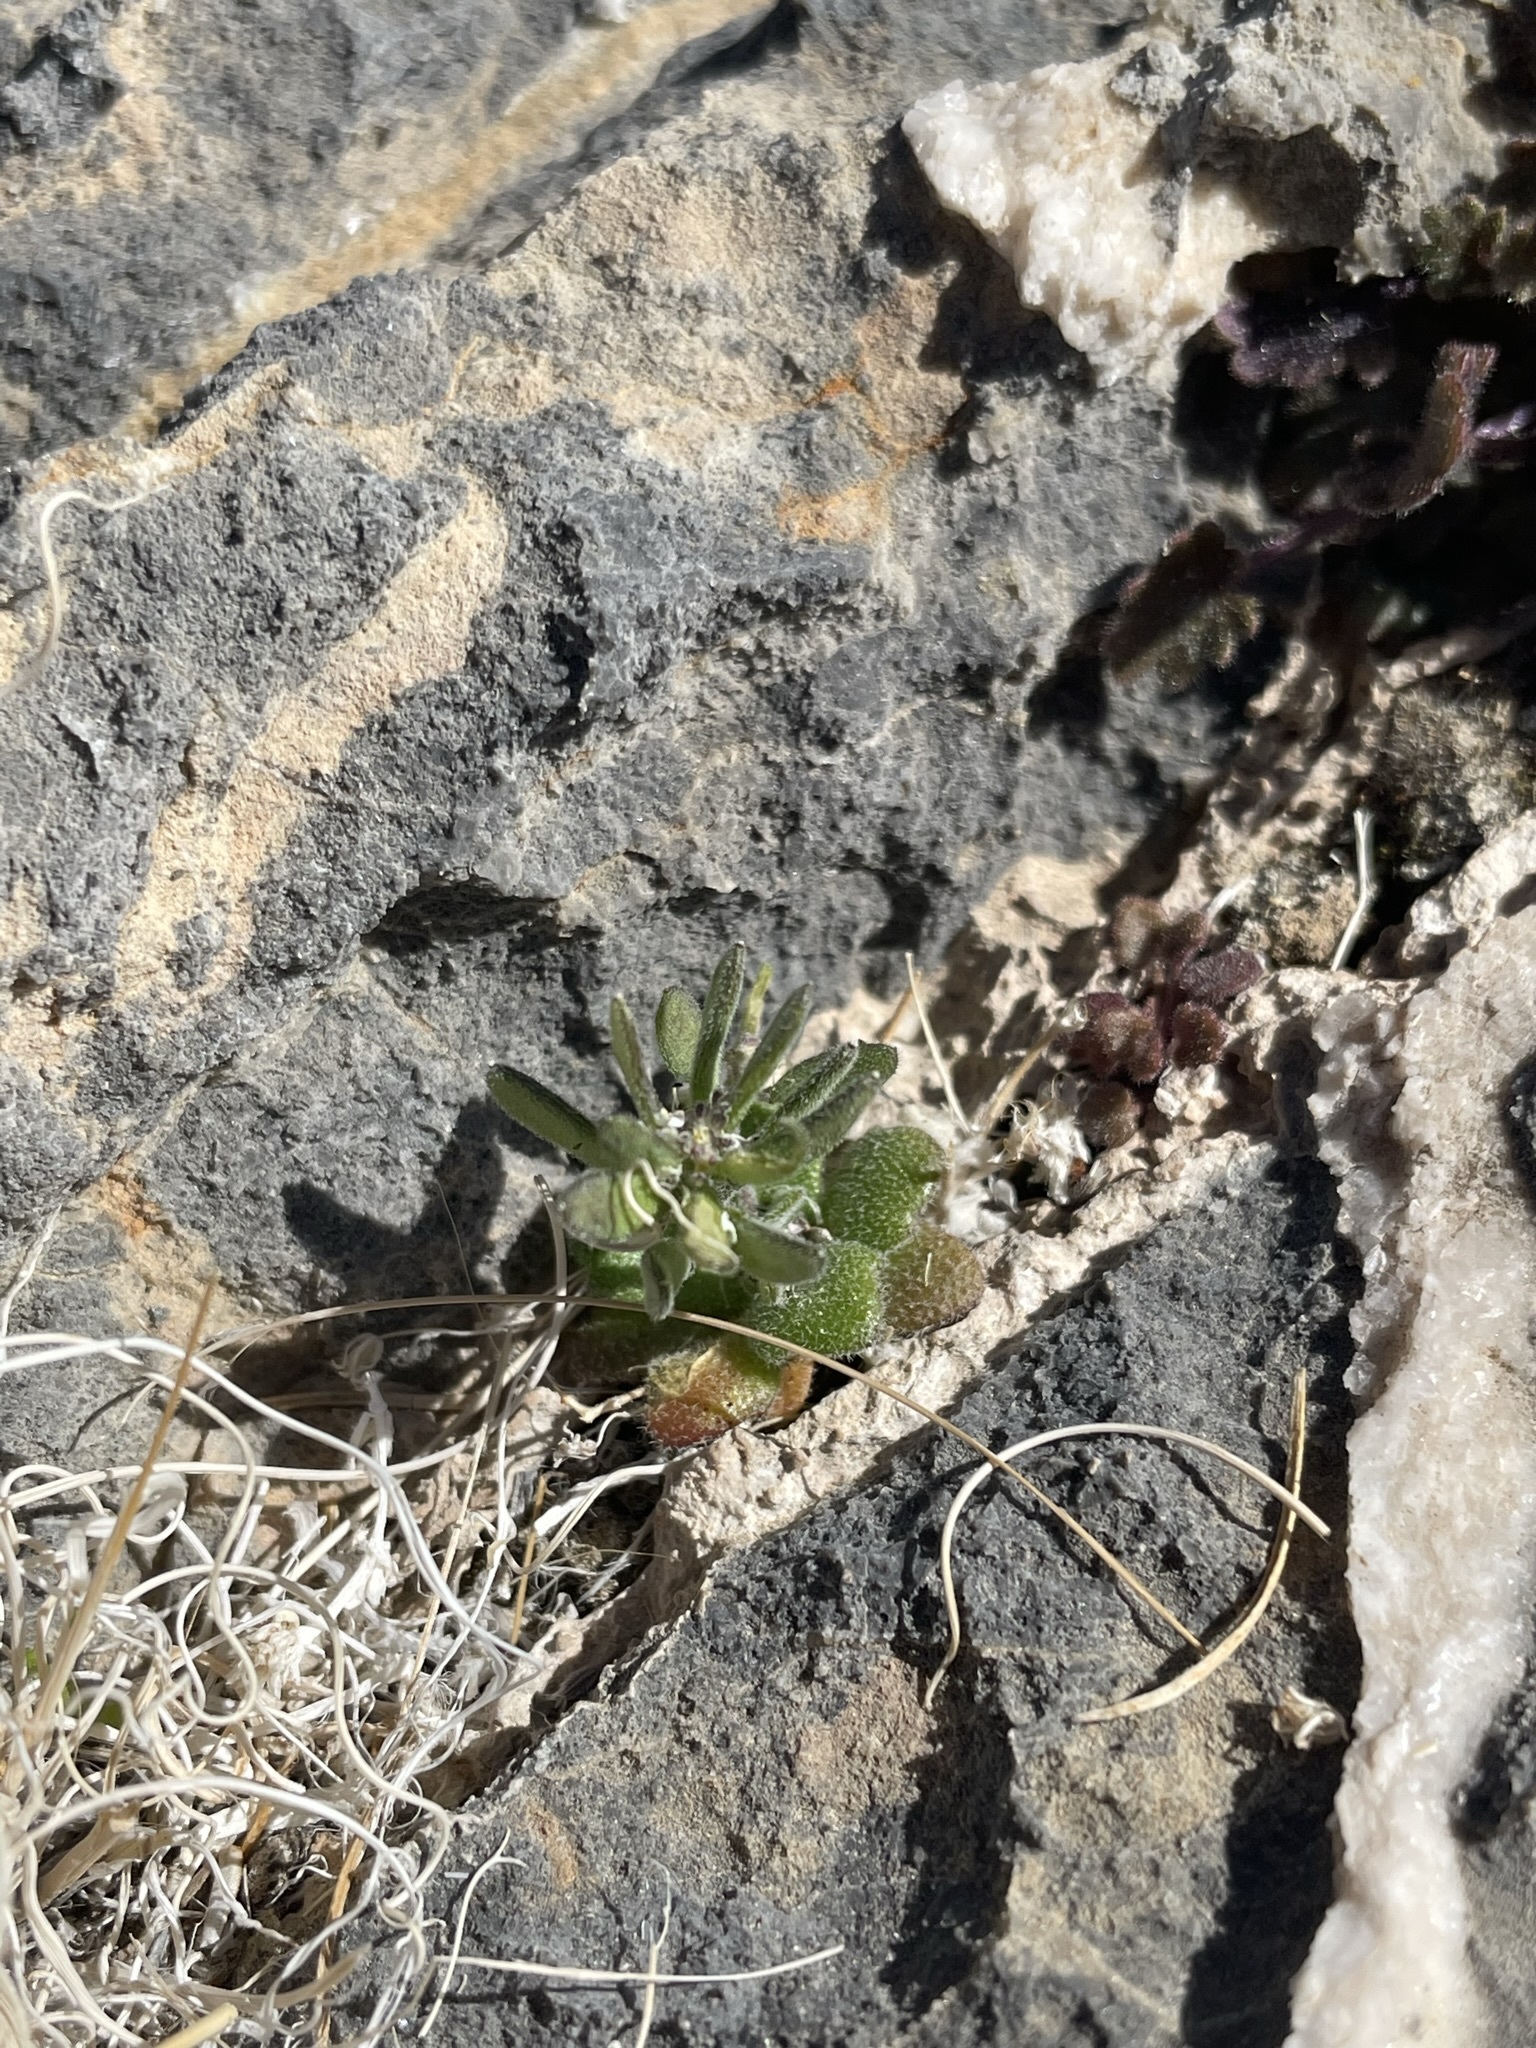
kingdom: Plantae
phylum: Tracheophyta
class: Magnoliopsida
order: Brassicales
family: Brassicaceae
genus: Tomostima
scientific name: Tomostima cuneifolia
